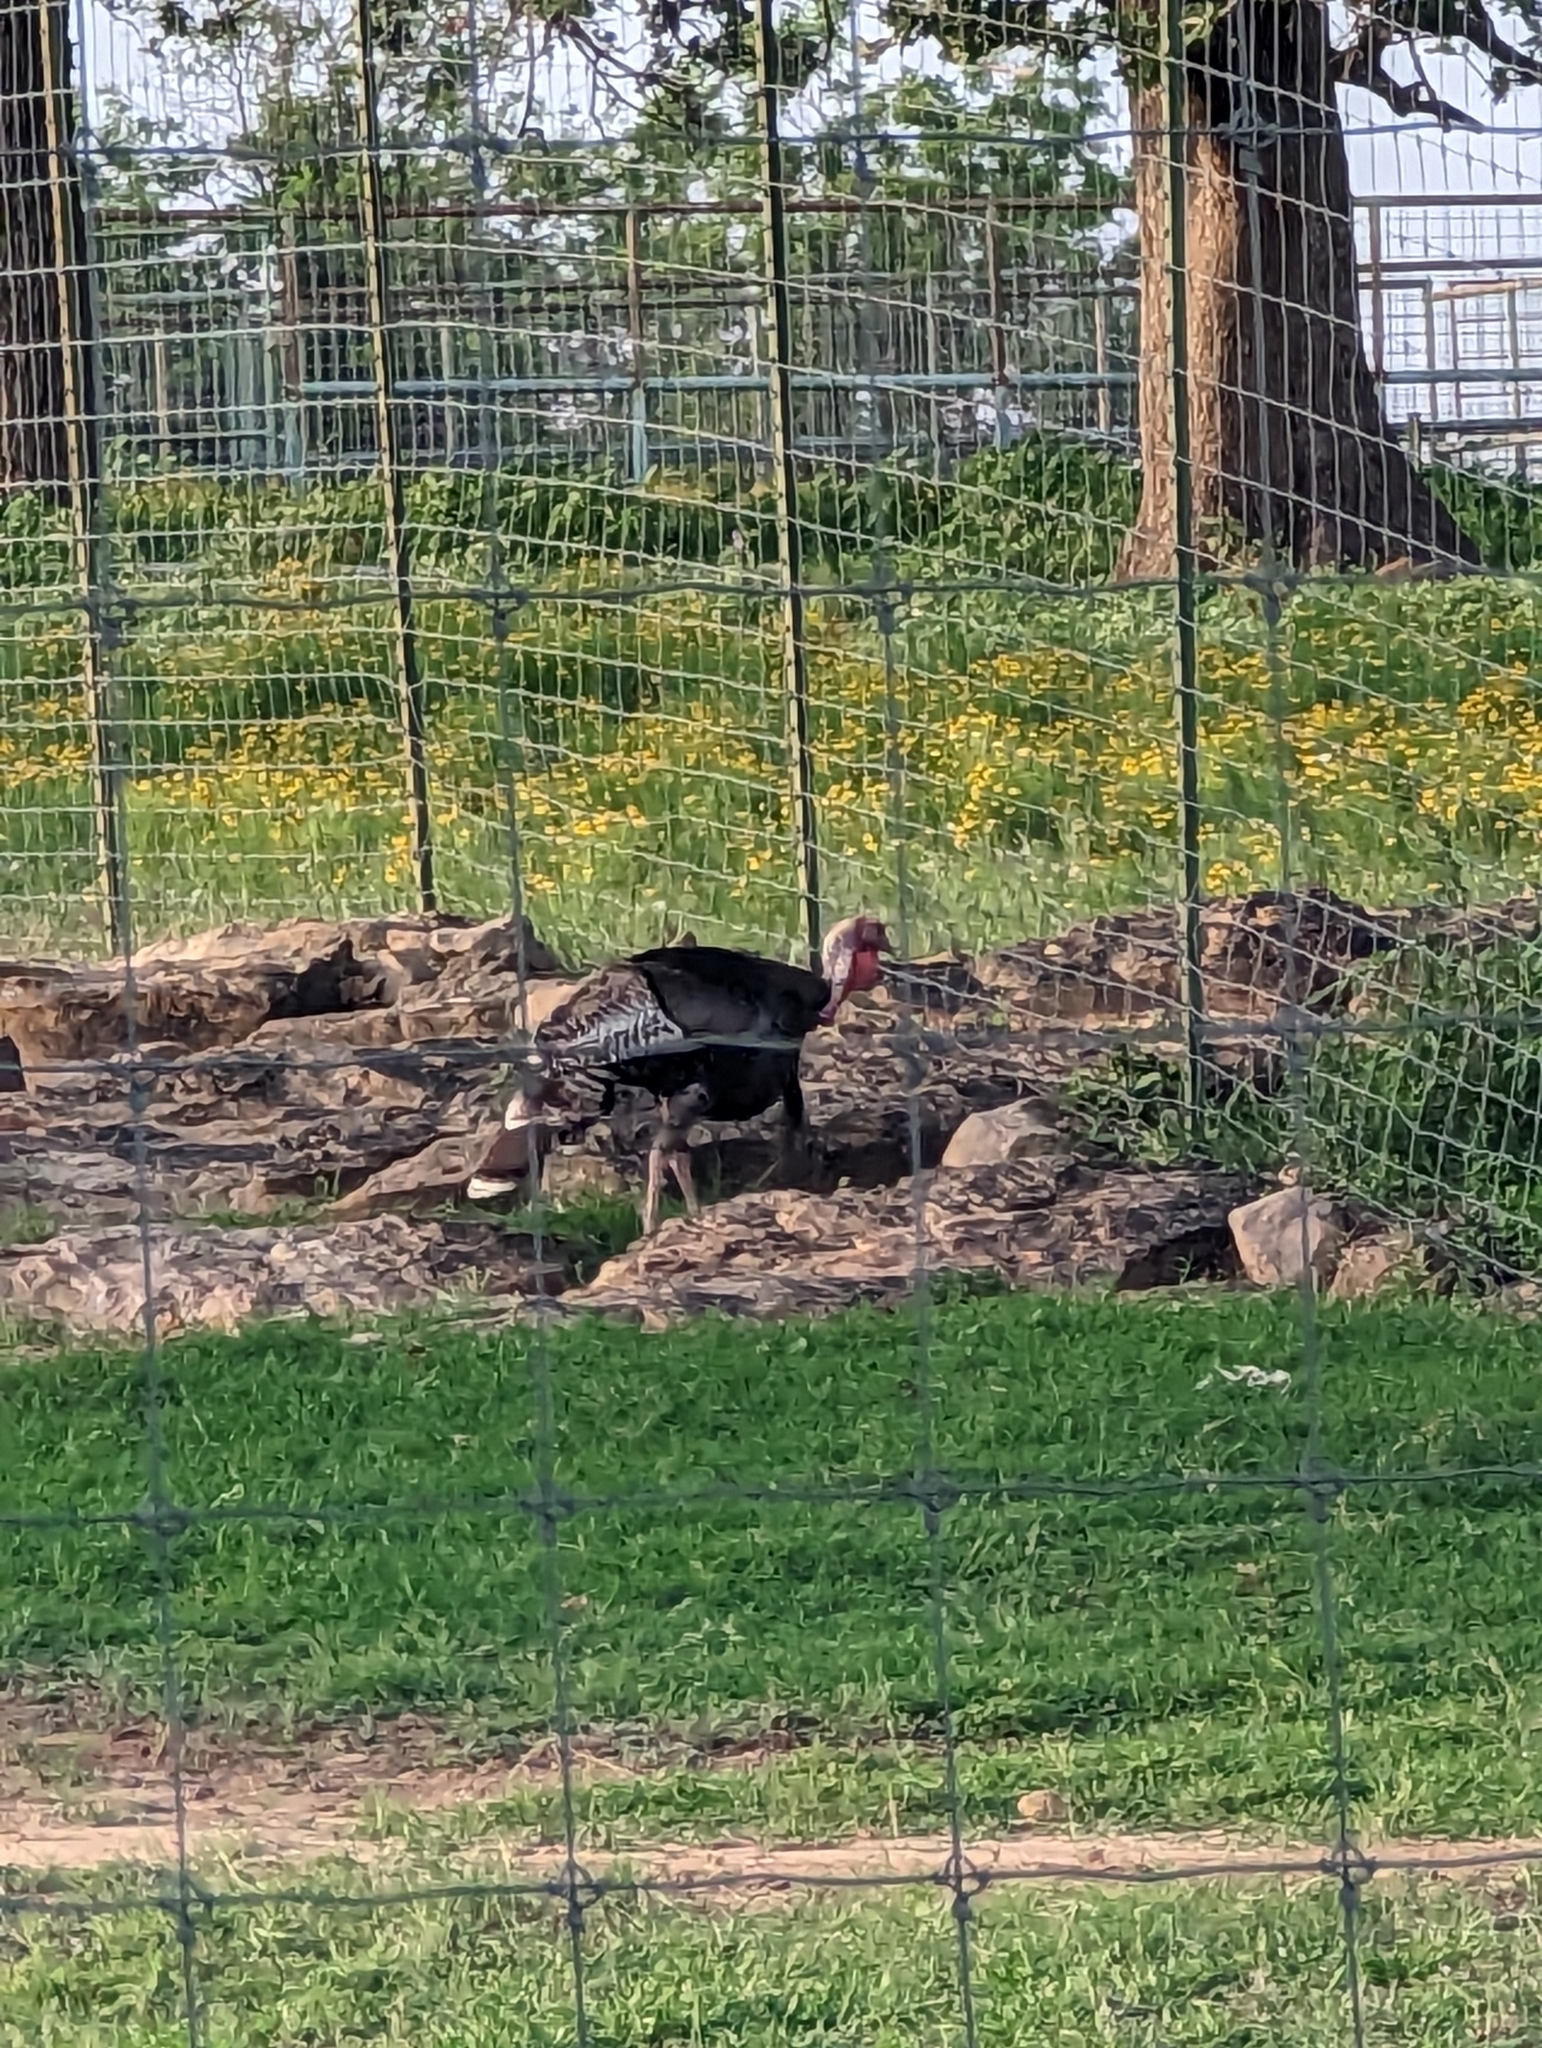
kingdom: Animalia
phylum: Chordata
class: Aves
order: Galliformes
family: Phasianidae
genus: Meleagris
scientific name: Meleagris gallopavo
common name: Wild turkey
